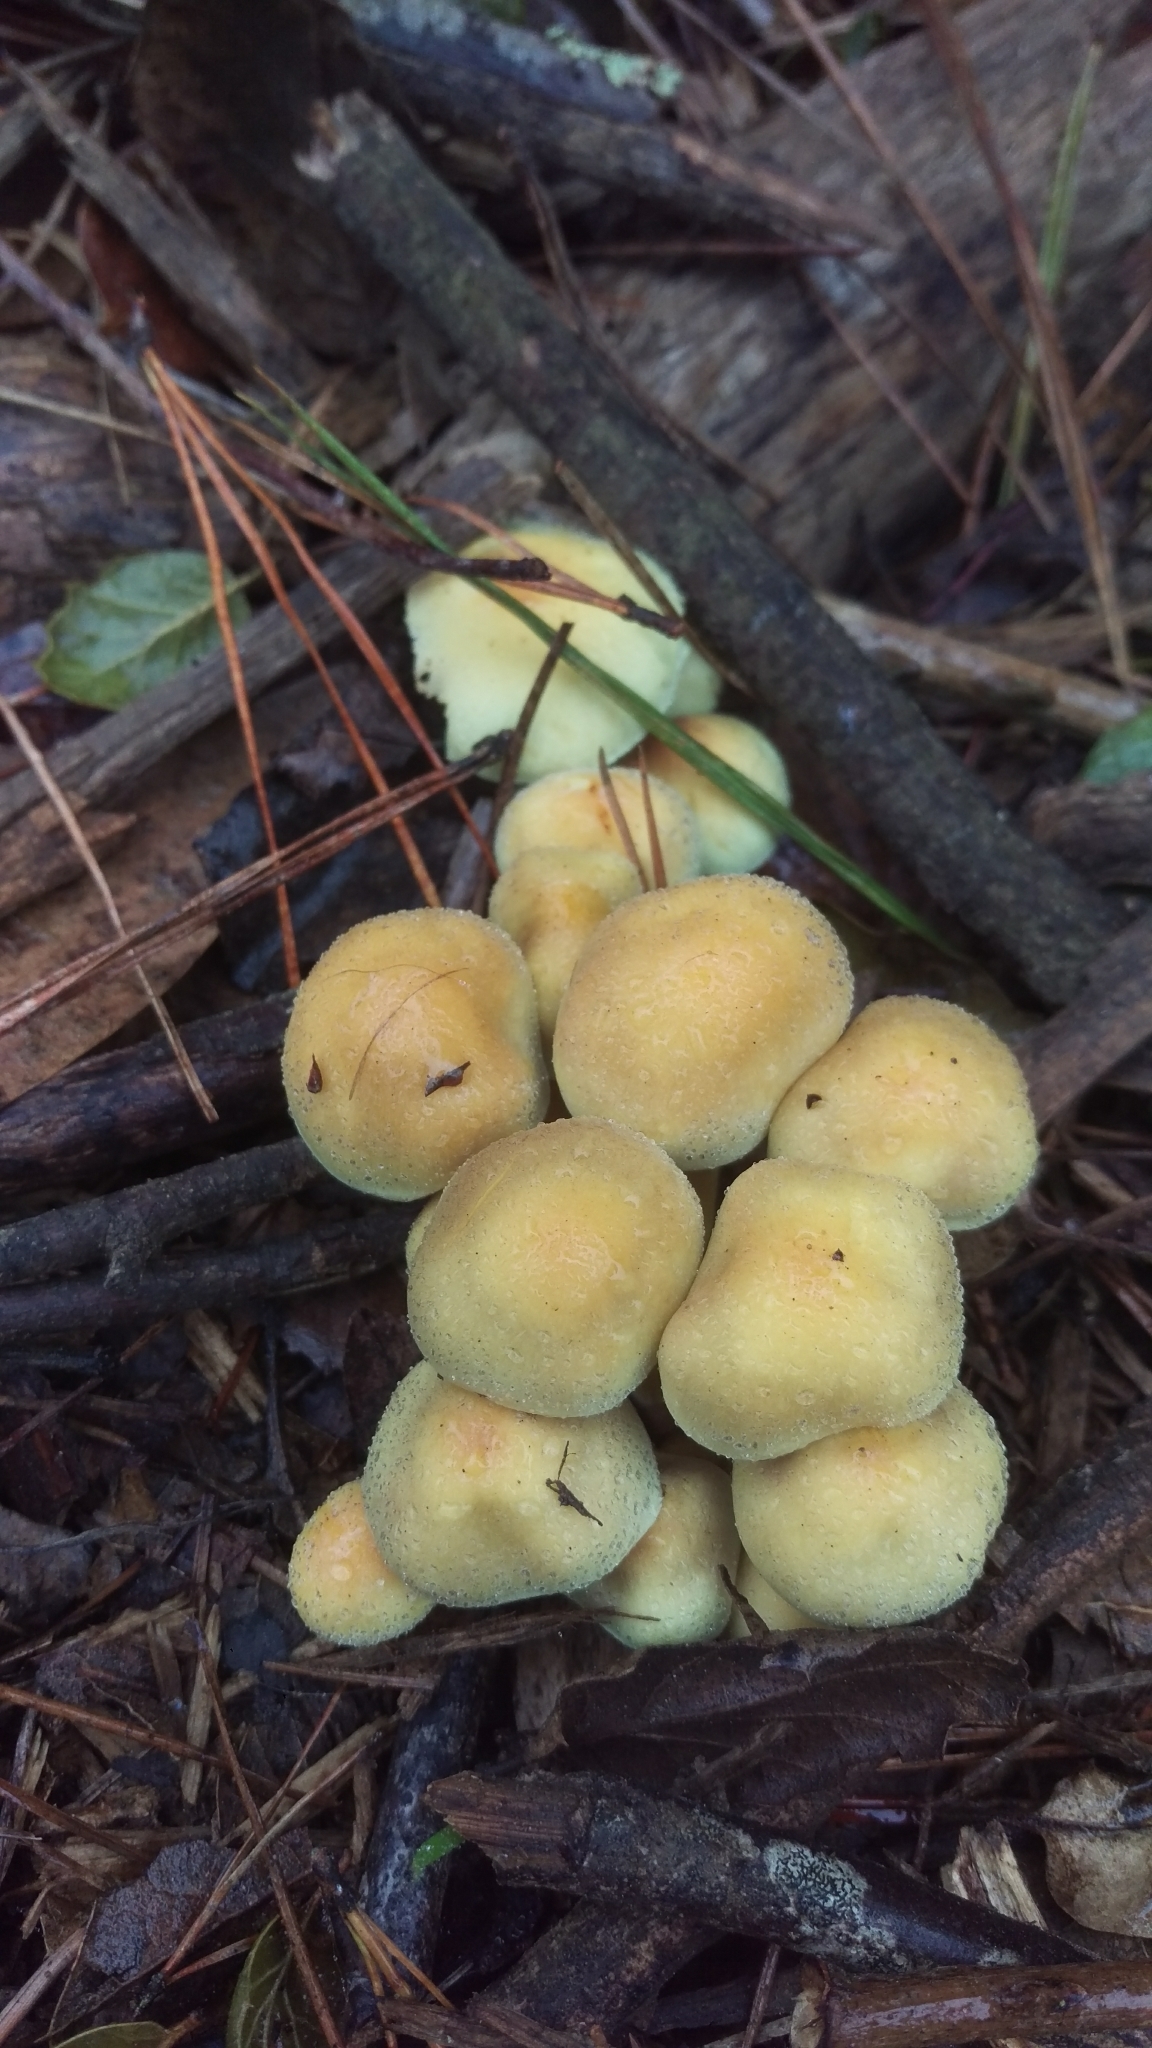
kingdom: Fungi
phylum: Basidiomycota
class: Agaricomycetes
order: Agaricales
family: Strophariaceae
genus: Hypholoma
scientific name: Hypholoma fasciculare
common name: Sulphur tuft
